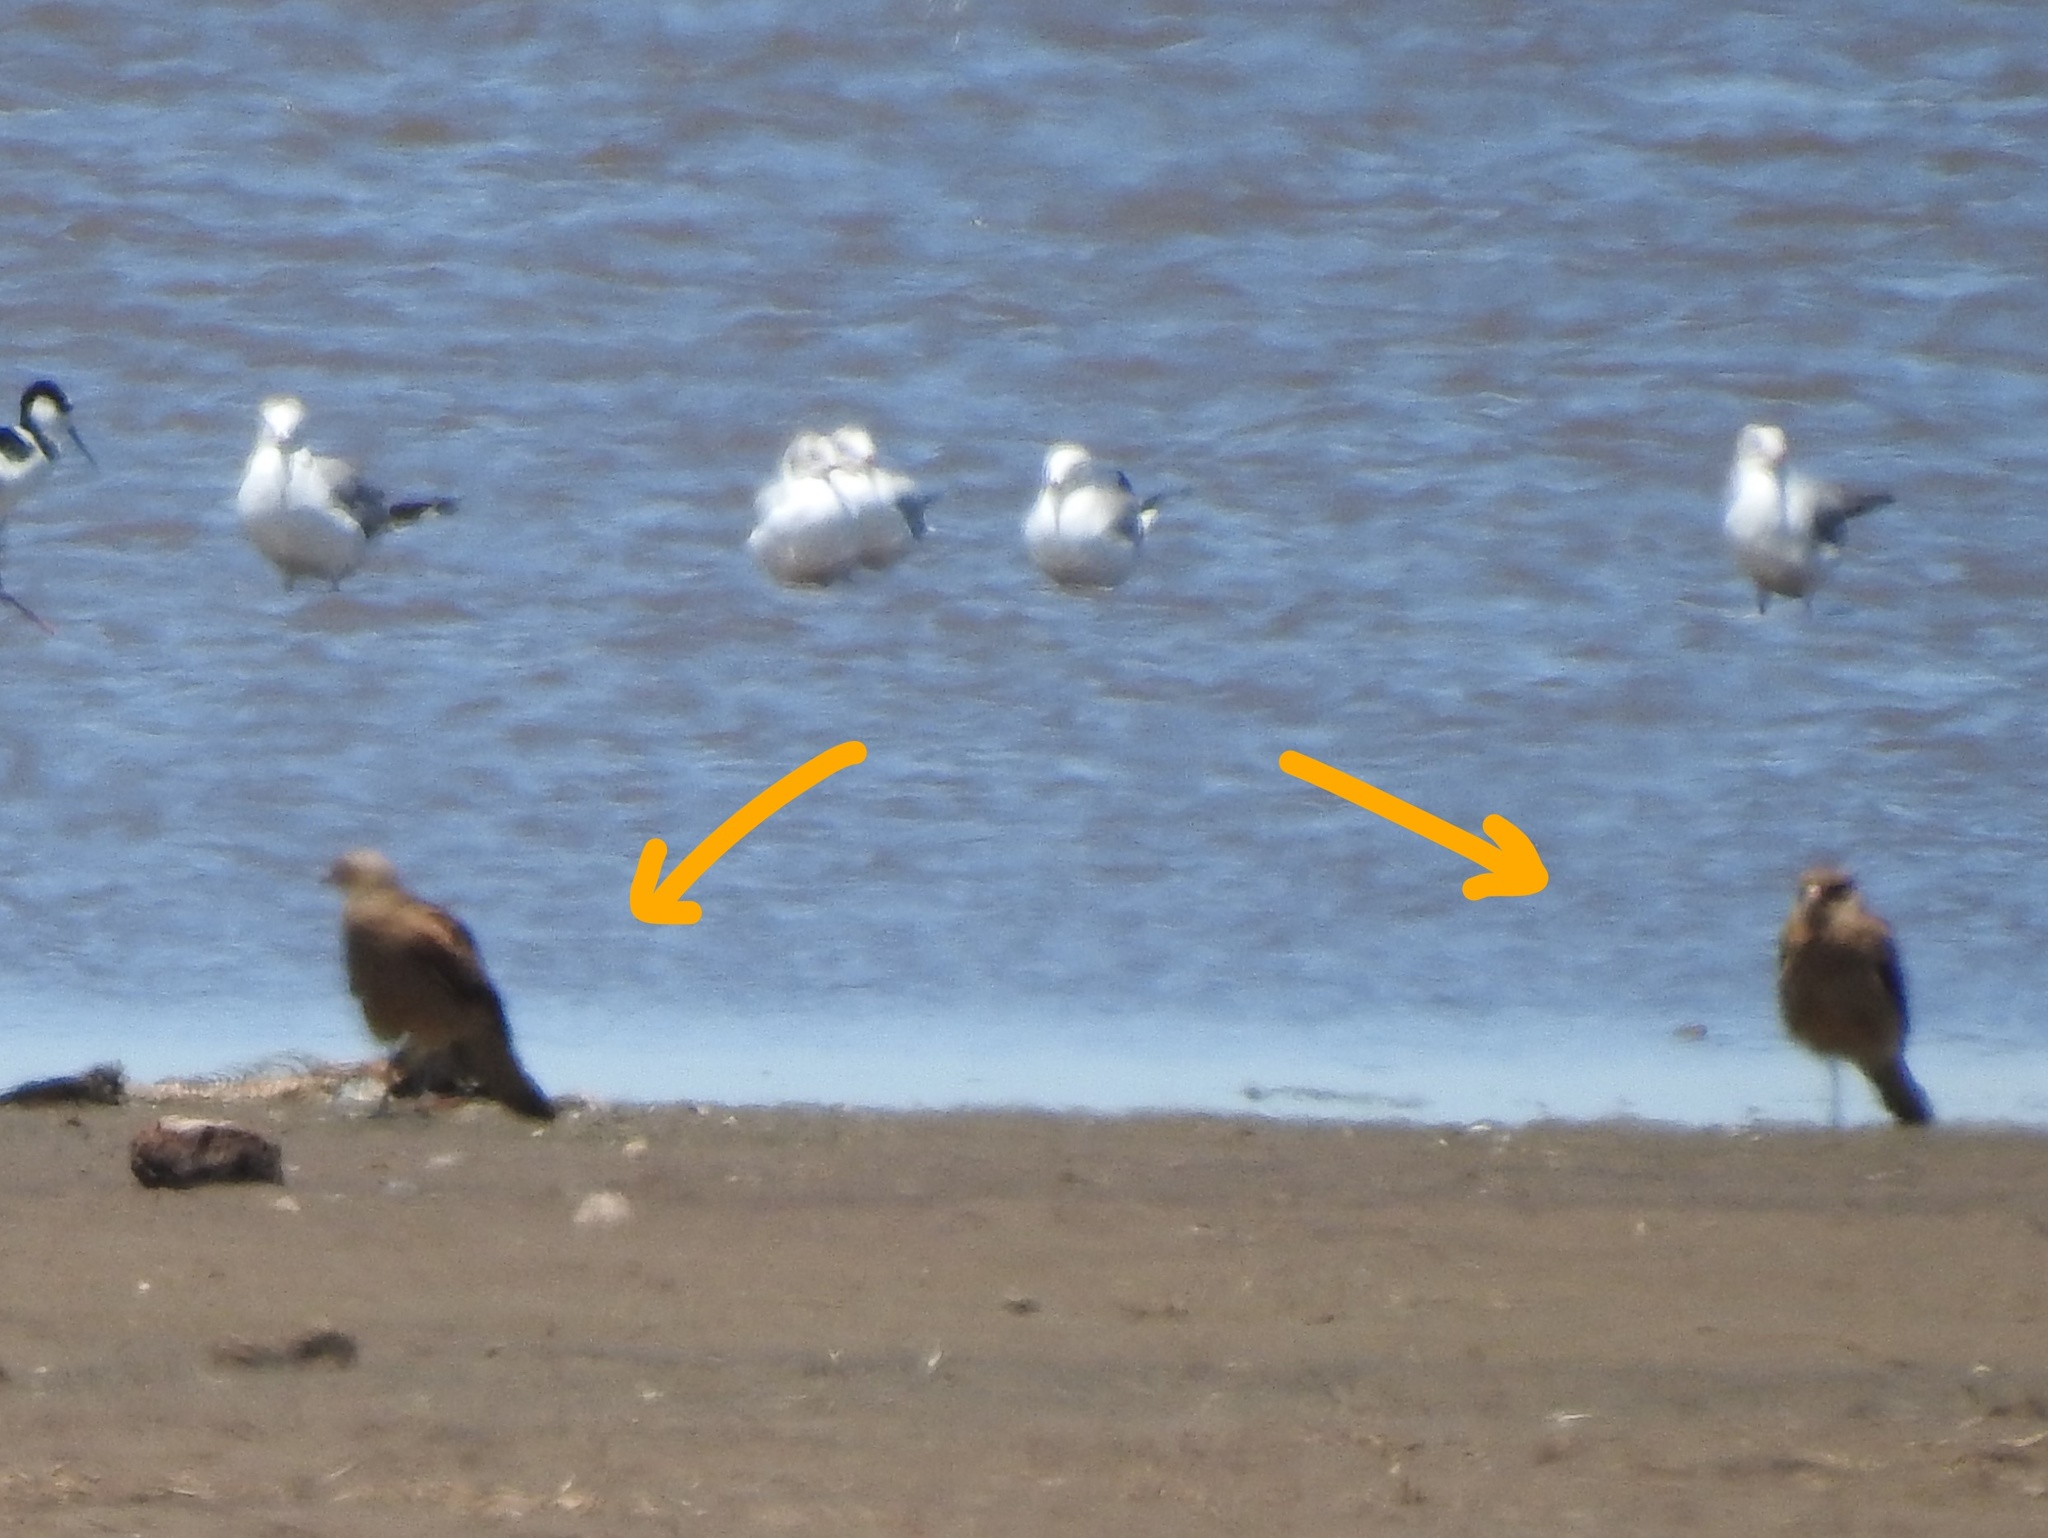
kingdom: Animalia
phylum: Chordata
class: Aves
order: Falconiformes
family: Falconidae
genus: Daptrius
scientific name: Daptrius
